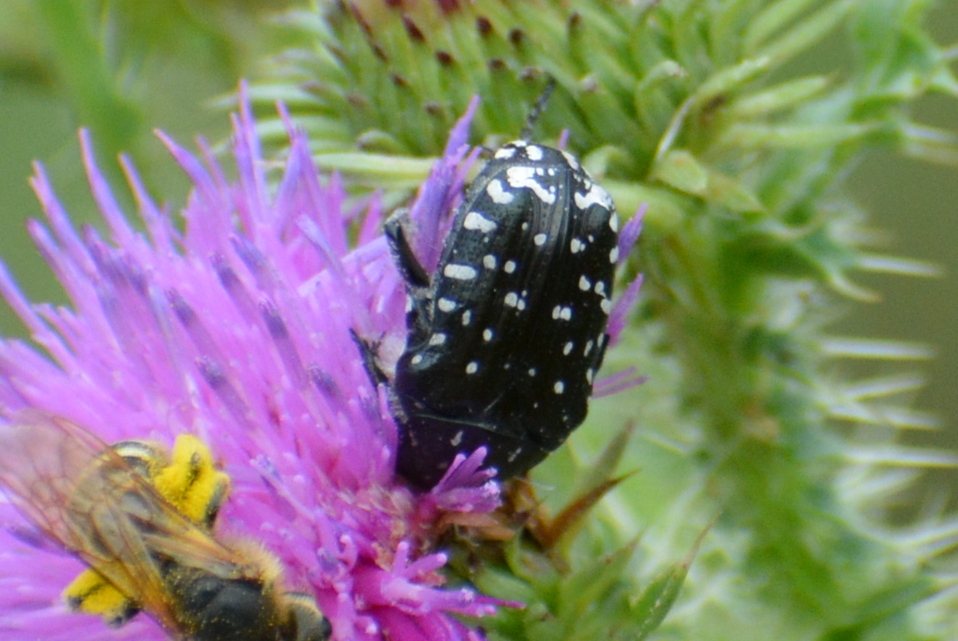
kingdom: Animalia
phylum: Arthropoda
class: Insecta
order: Coleoptera
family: Scarabaeidae
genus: Oxythyrea
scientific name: Oxythyrea funesta
